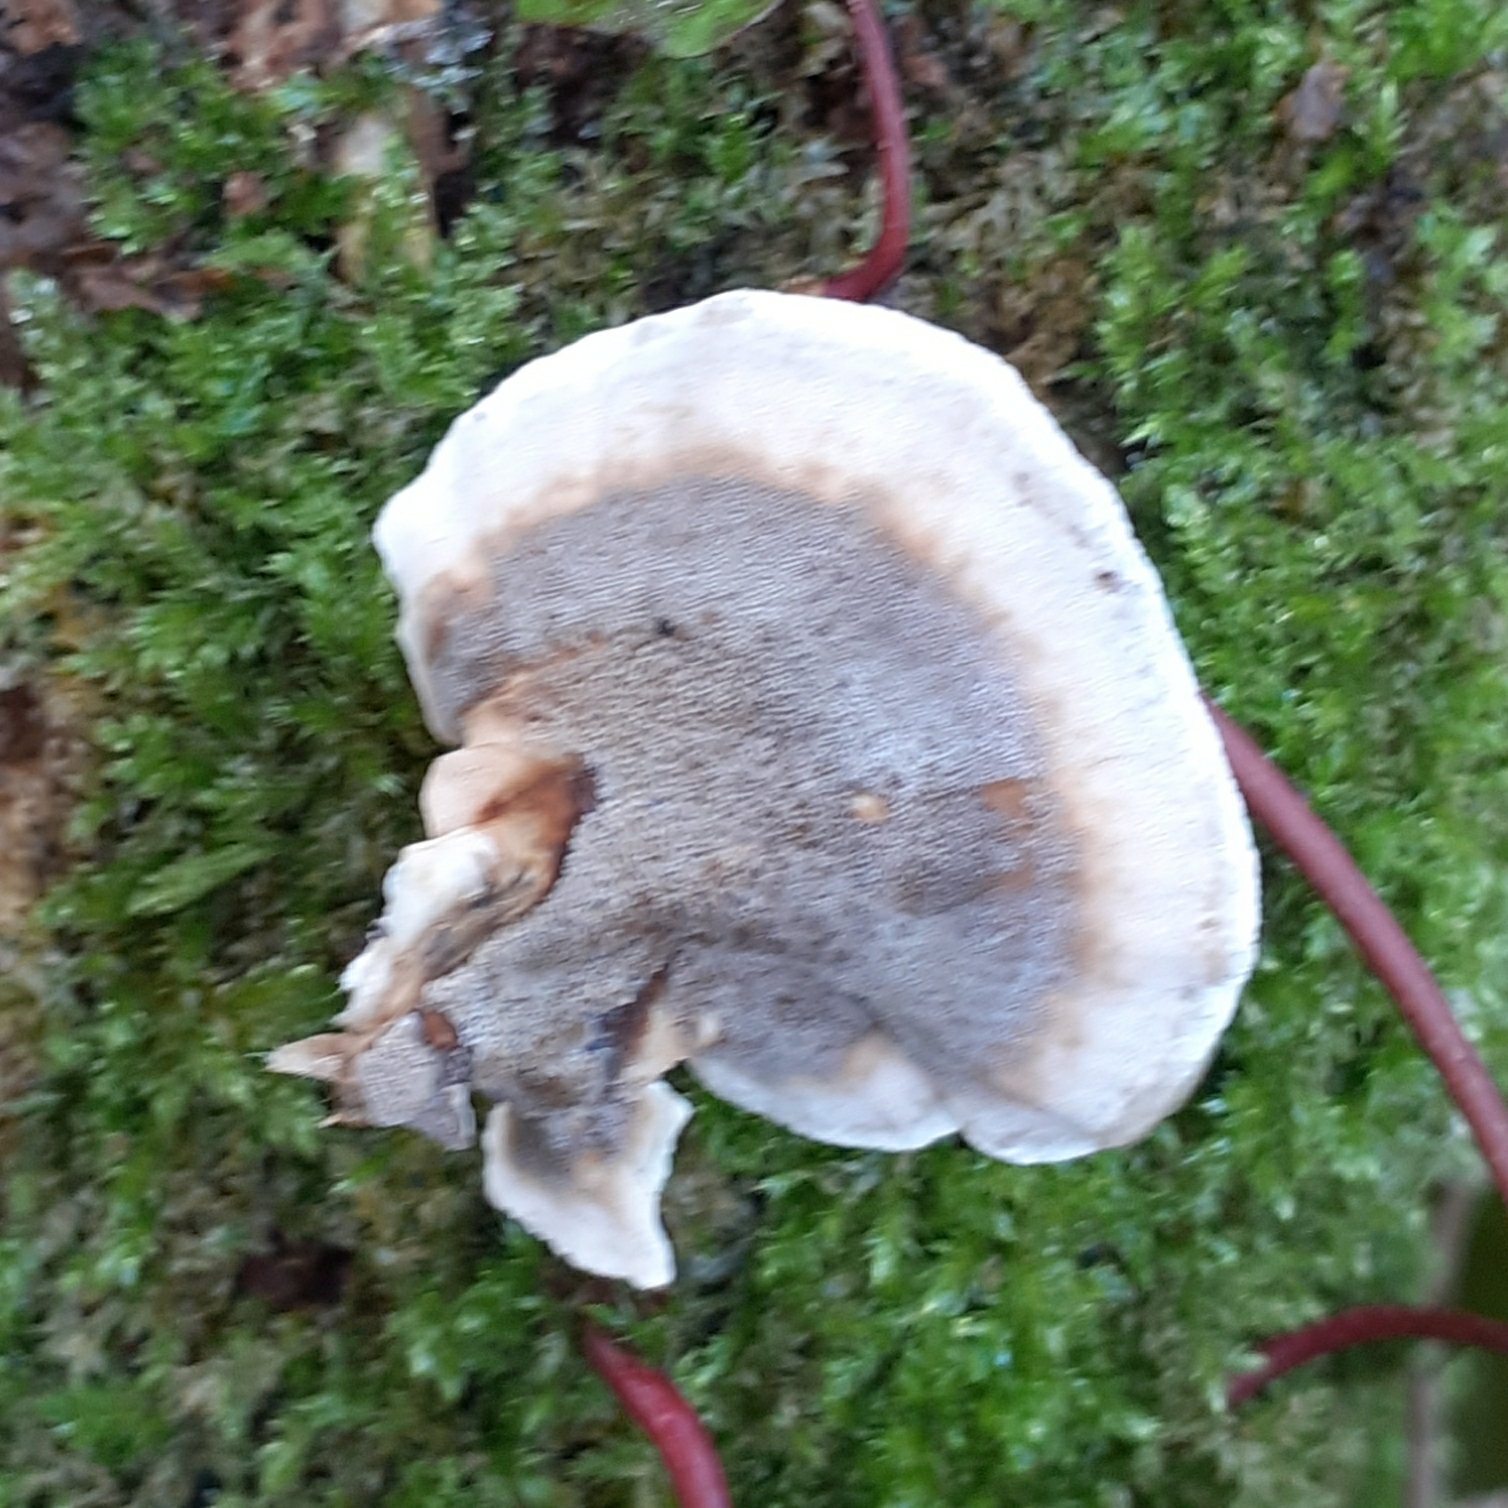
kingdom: Fungi
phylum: Basidiomycota
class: Agaricomycetes
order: Polyporales
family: Phanerochaetaceae
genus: Bjerkandera
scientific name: Bjerkandera adusta
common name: Smoky bracket
